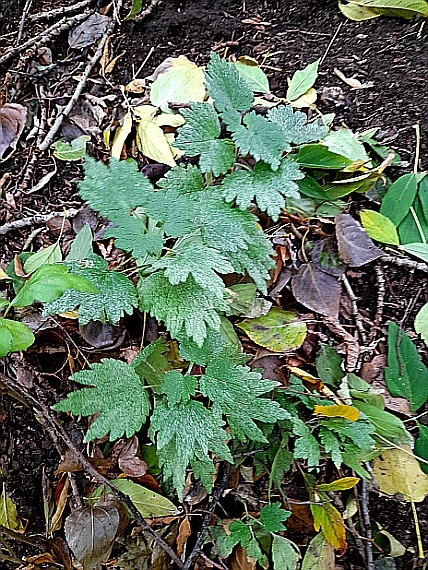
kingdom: Plantae
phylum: Tracheophyta
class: Magnoliopsida
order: Lamiales
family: Lamiaceae
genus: Leonurus
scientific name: Leonurus quinquelobatus
